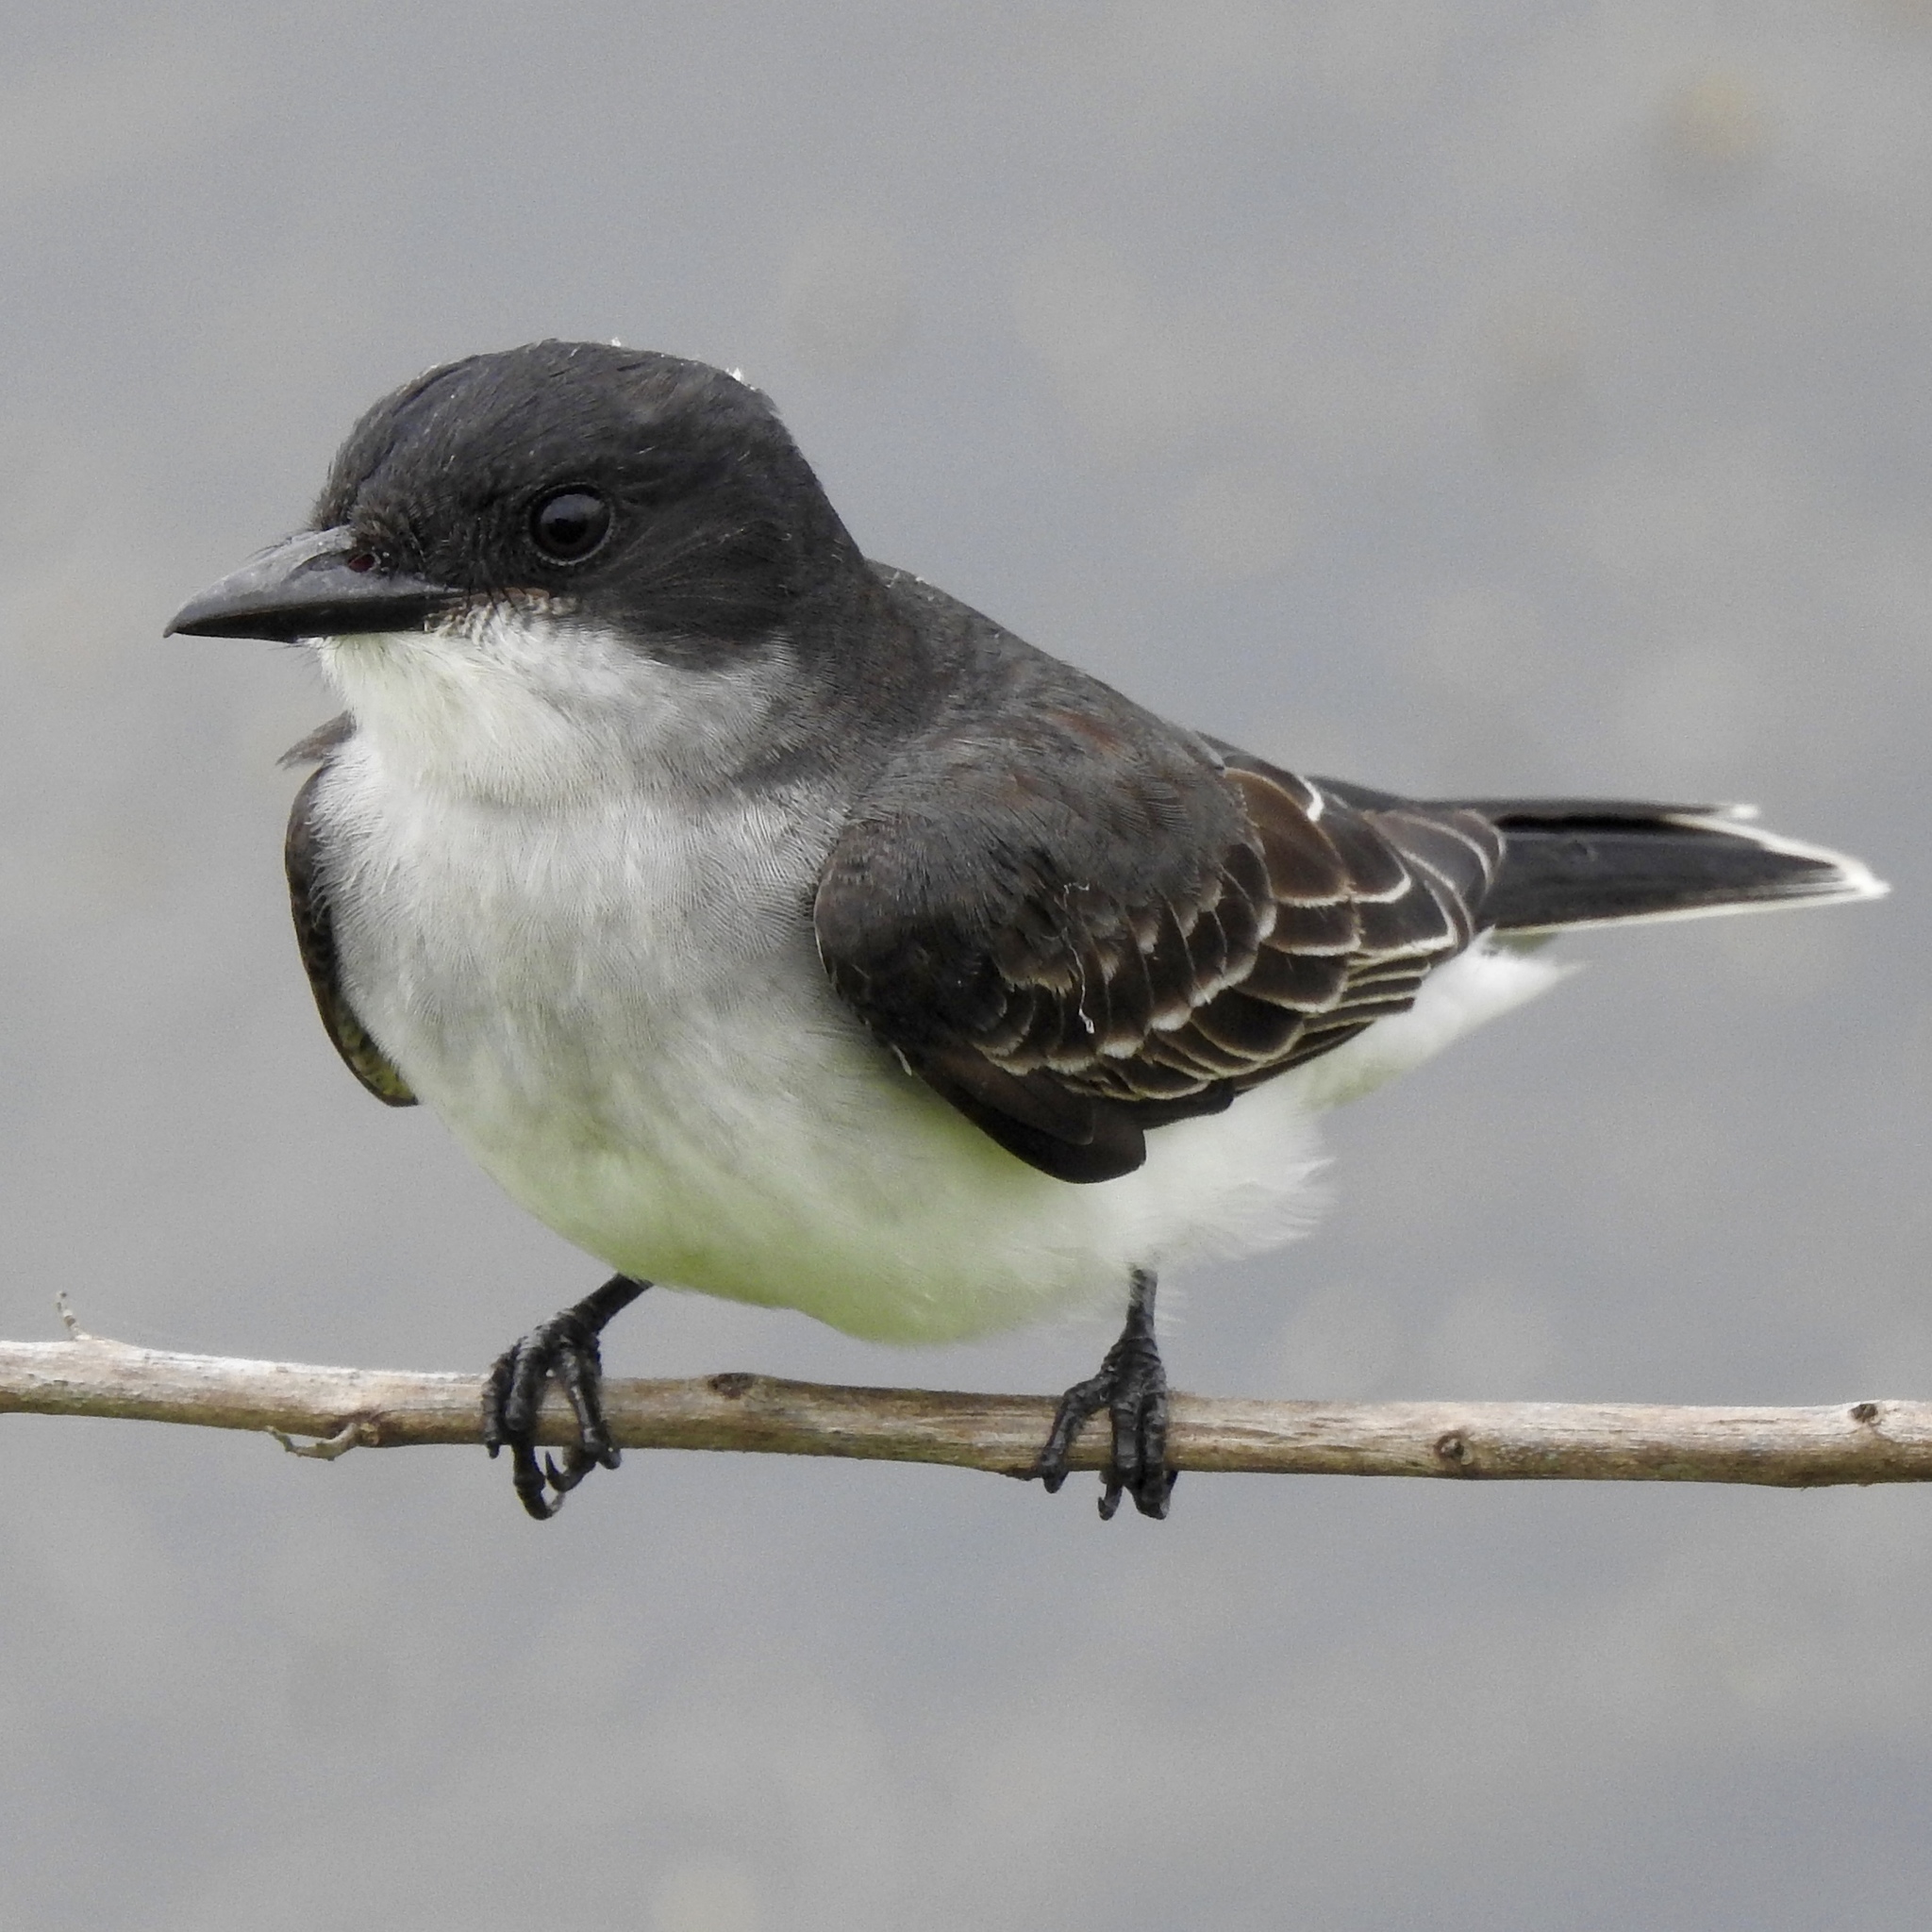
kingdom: Animalia
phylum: Chordata
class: Aves
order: Passeriformes
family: Tyrannidae
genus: Tyrannus
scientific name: Tyrannus tyrannus
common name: Eastern kingbird
